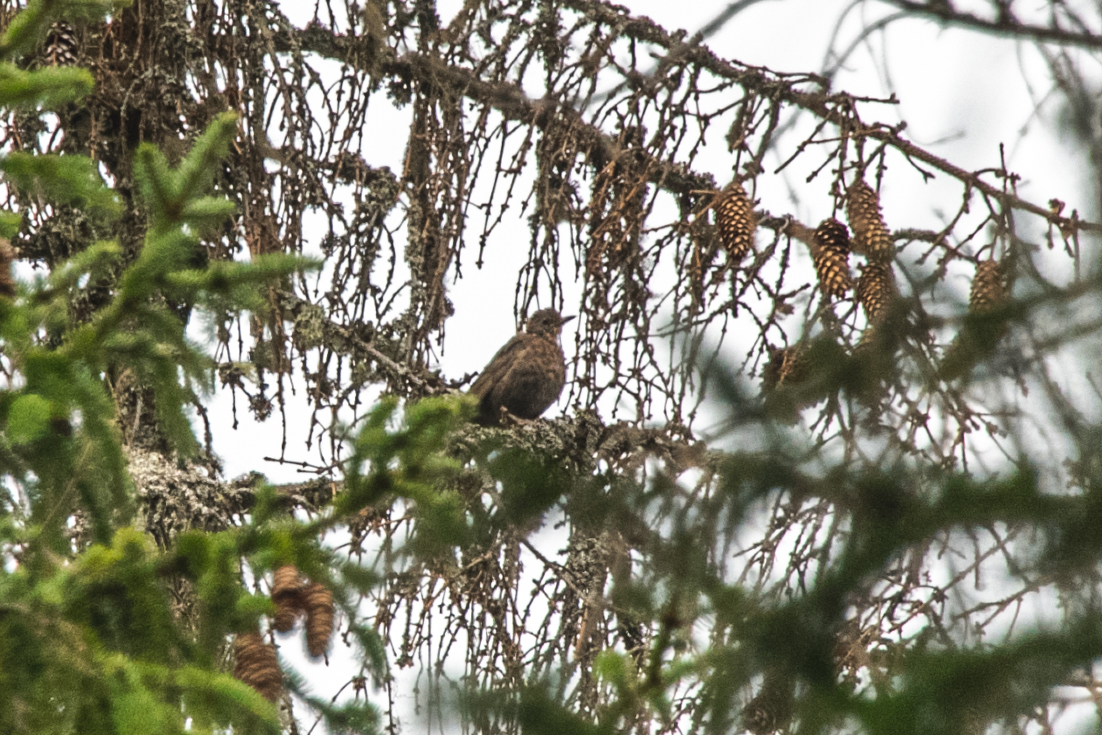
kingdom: Animalia
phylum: Chordata
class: Aves
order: Passeriformes
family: Turdidae
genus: Turdus
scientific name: Turdus philomelos
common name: Song thrush
